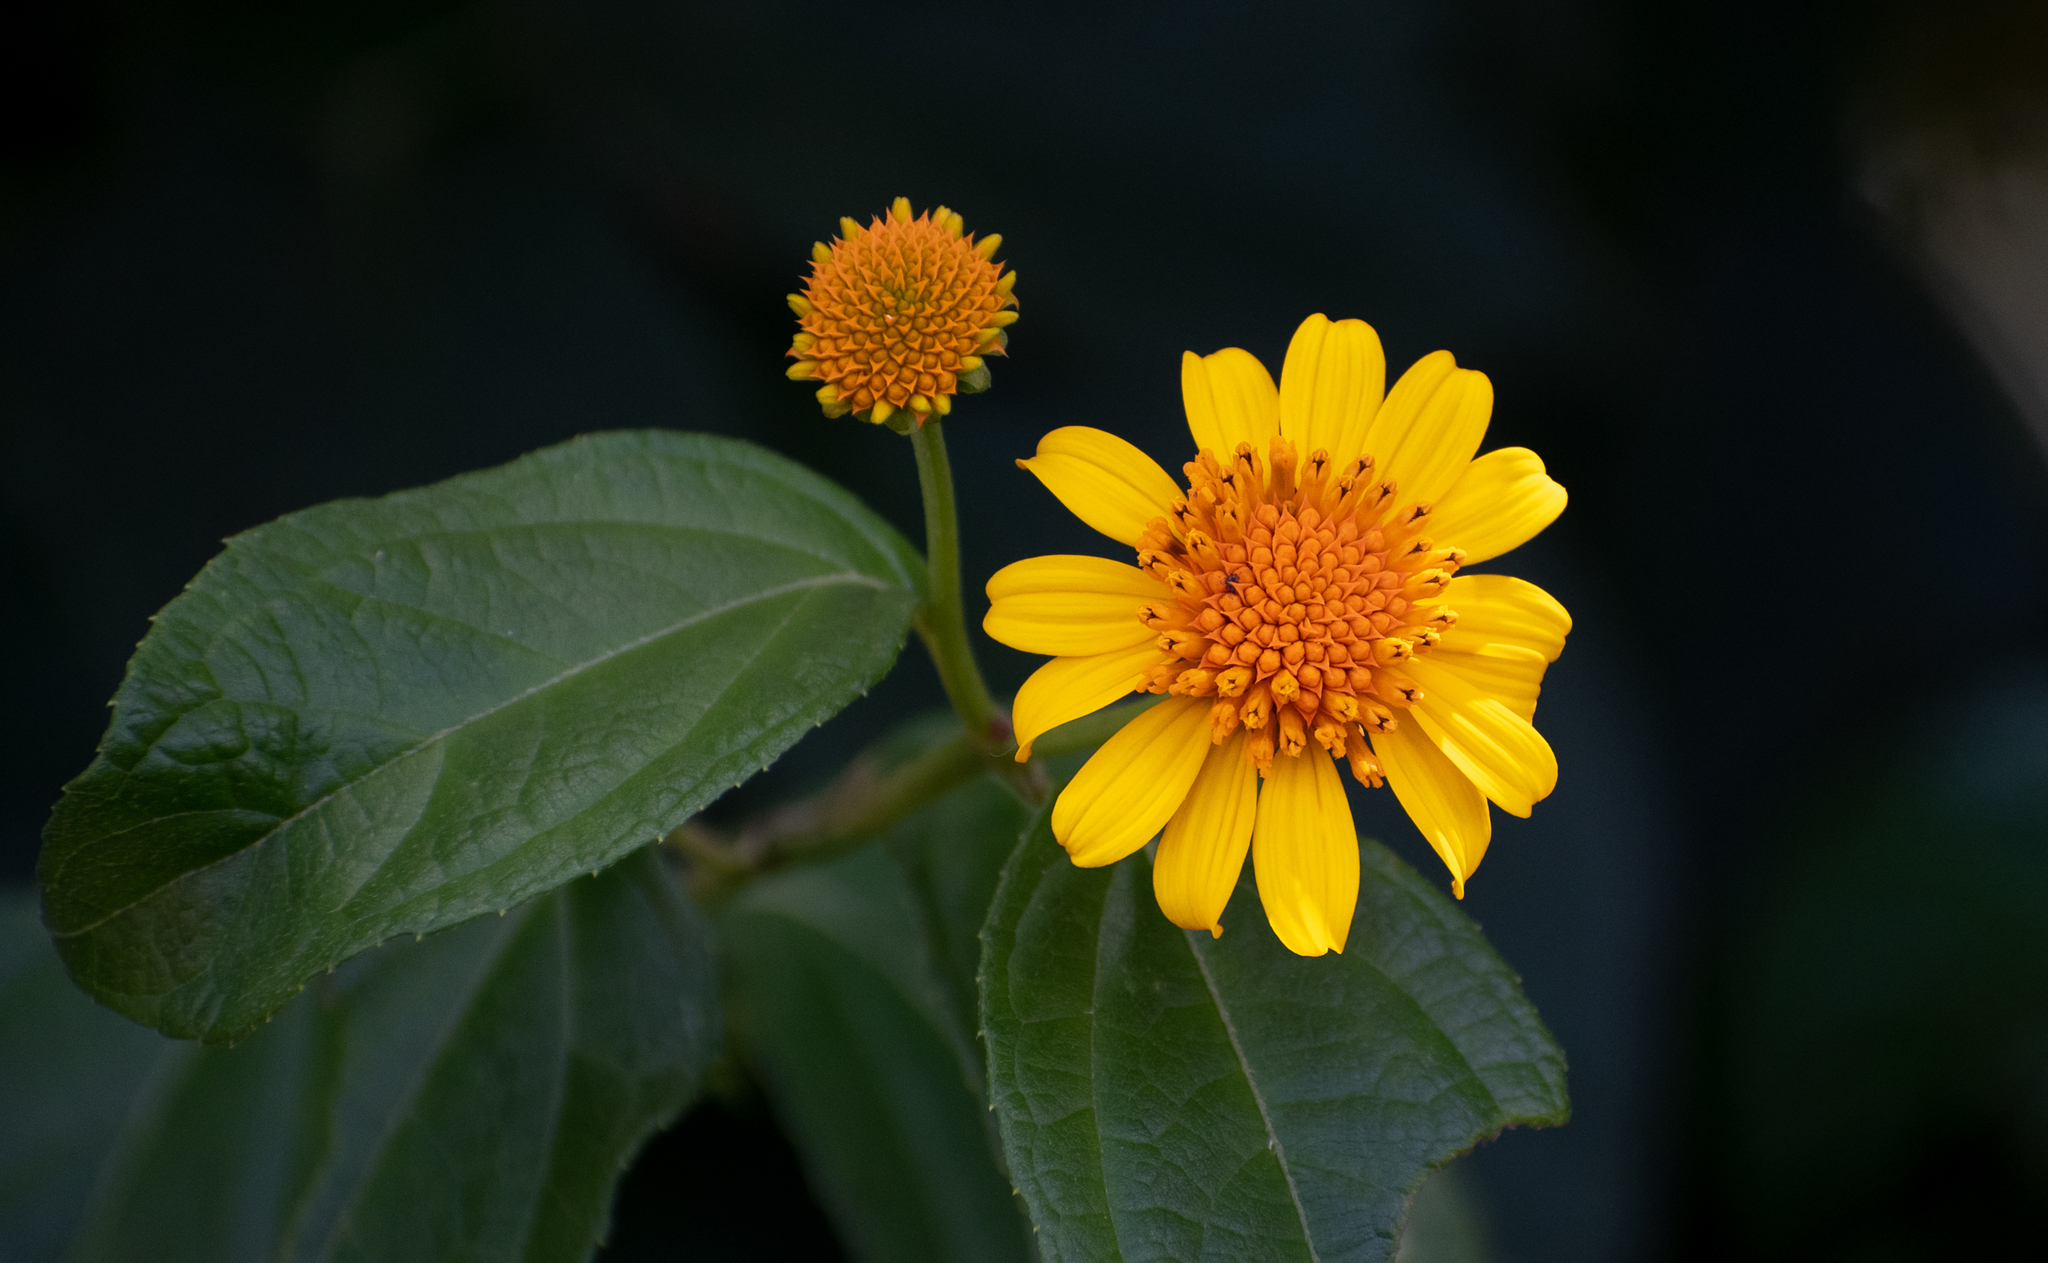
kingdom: Plantae
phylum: Tracheophyta
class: Magnoliopsida
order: Asterales
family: Asteraceae
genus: Tilesia
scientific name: Tilesia baccata
